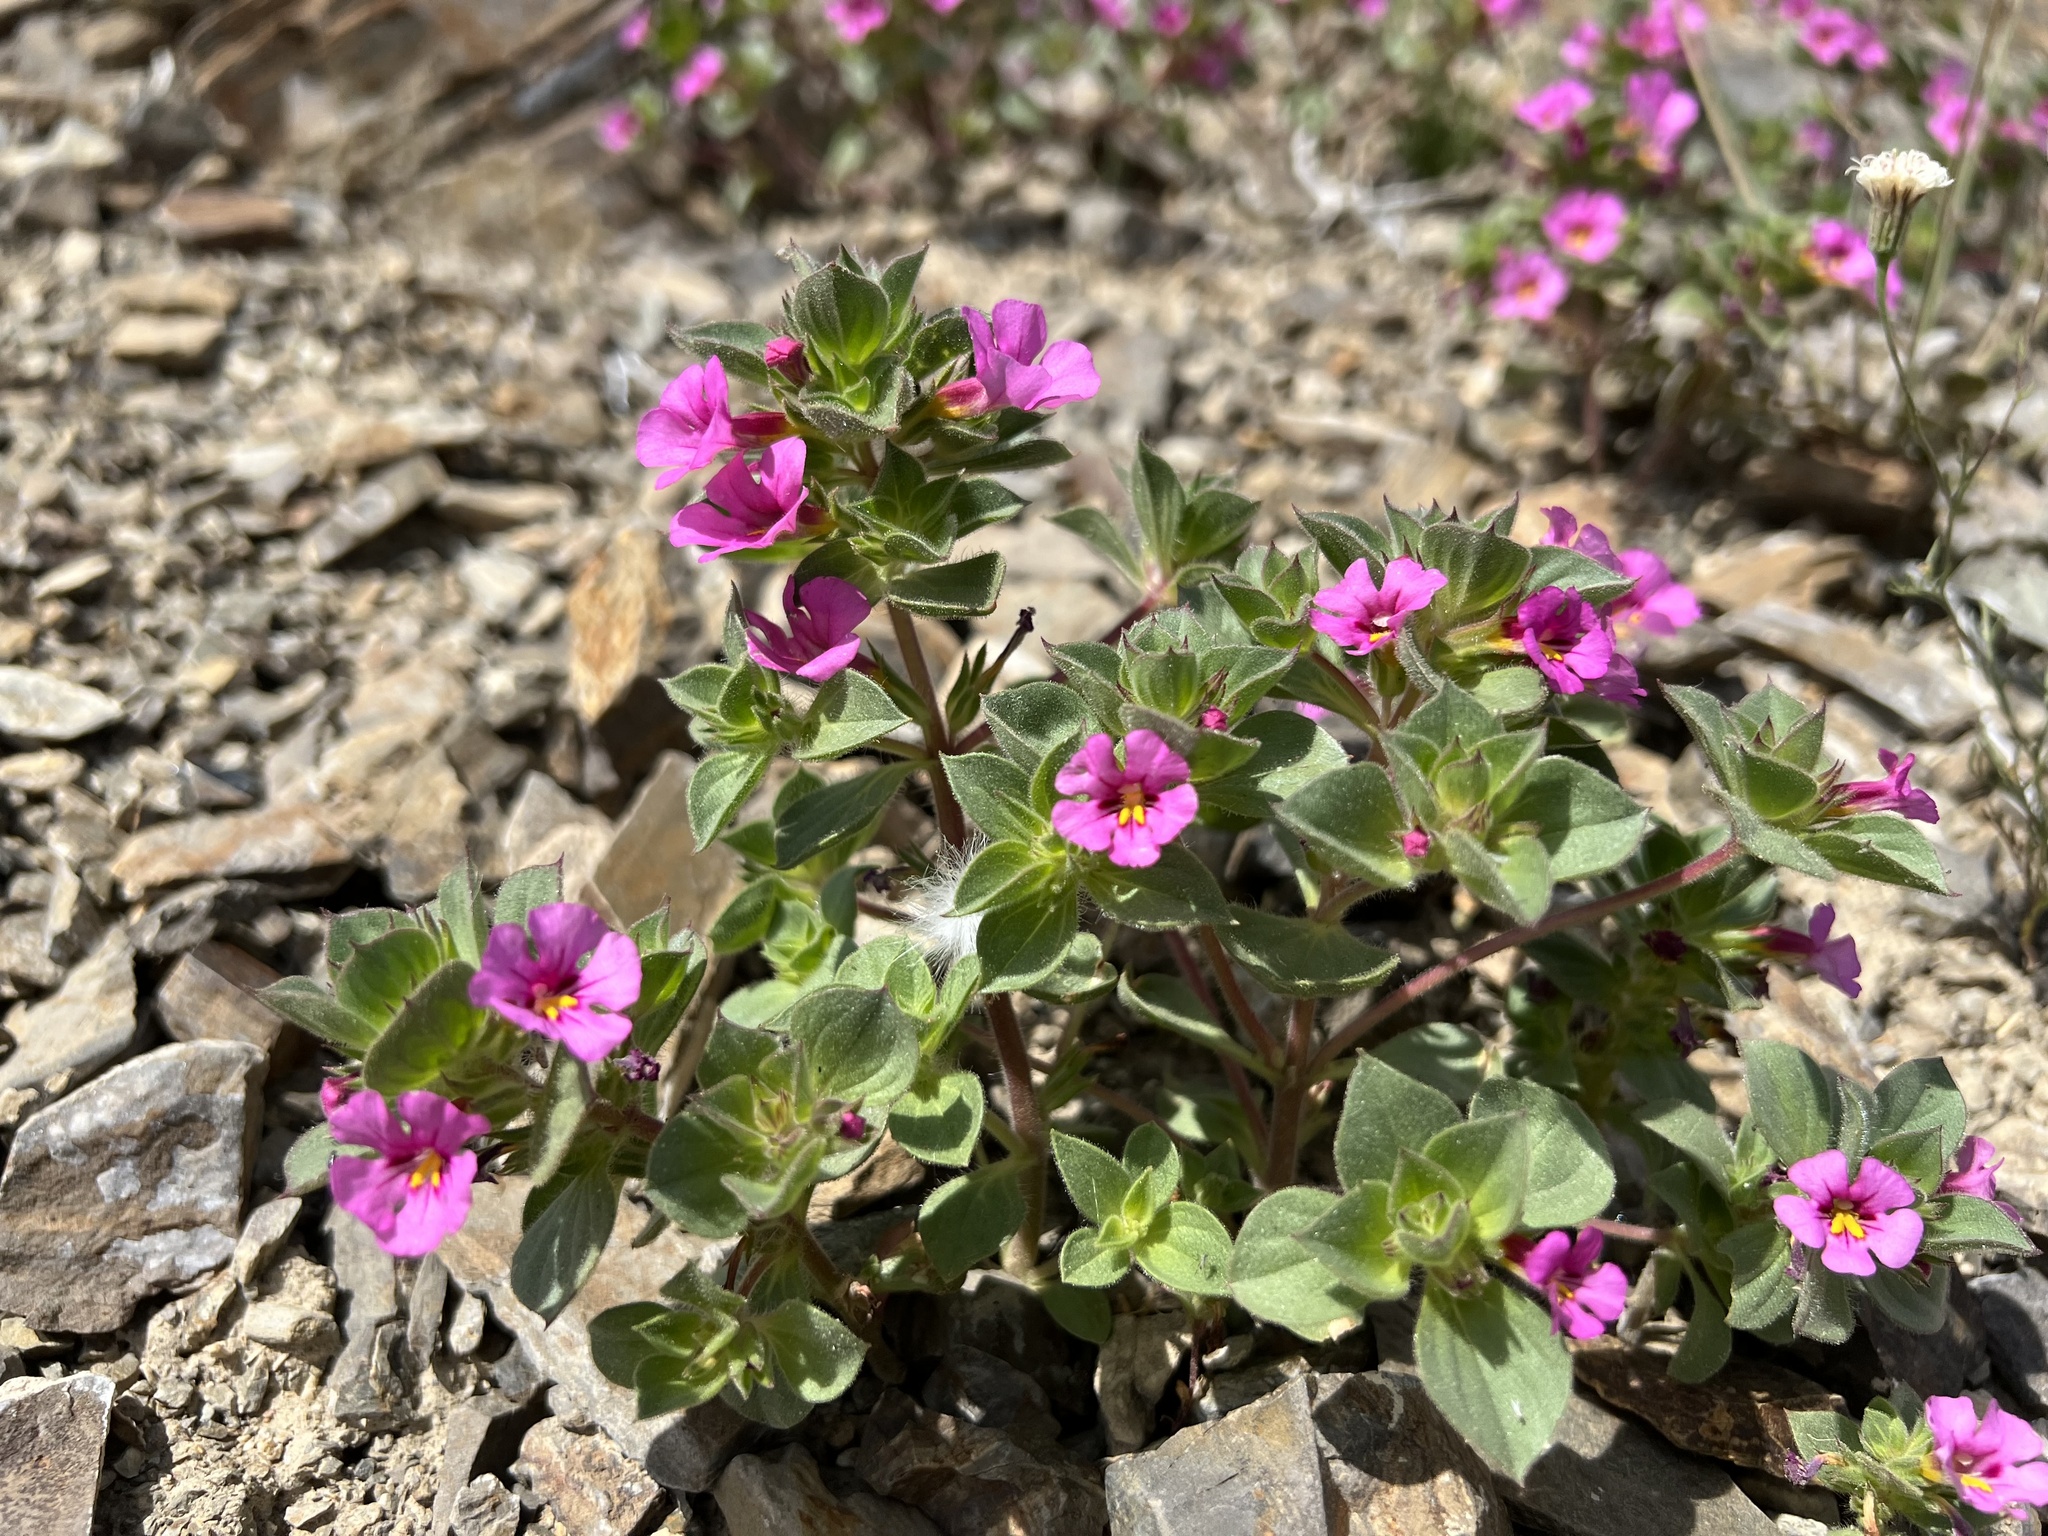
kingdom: Plantae
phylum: Tracheophyta
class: Magnoliopsida
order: Lamiales
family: Phrymaceae
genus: Diplacus
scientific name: Diplacus bigelovii
